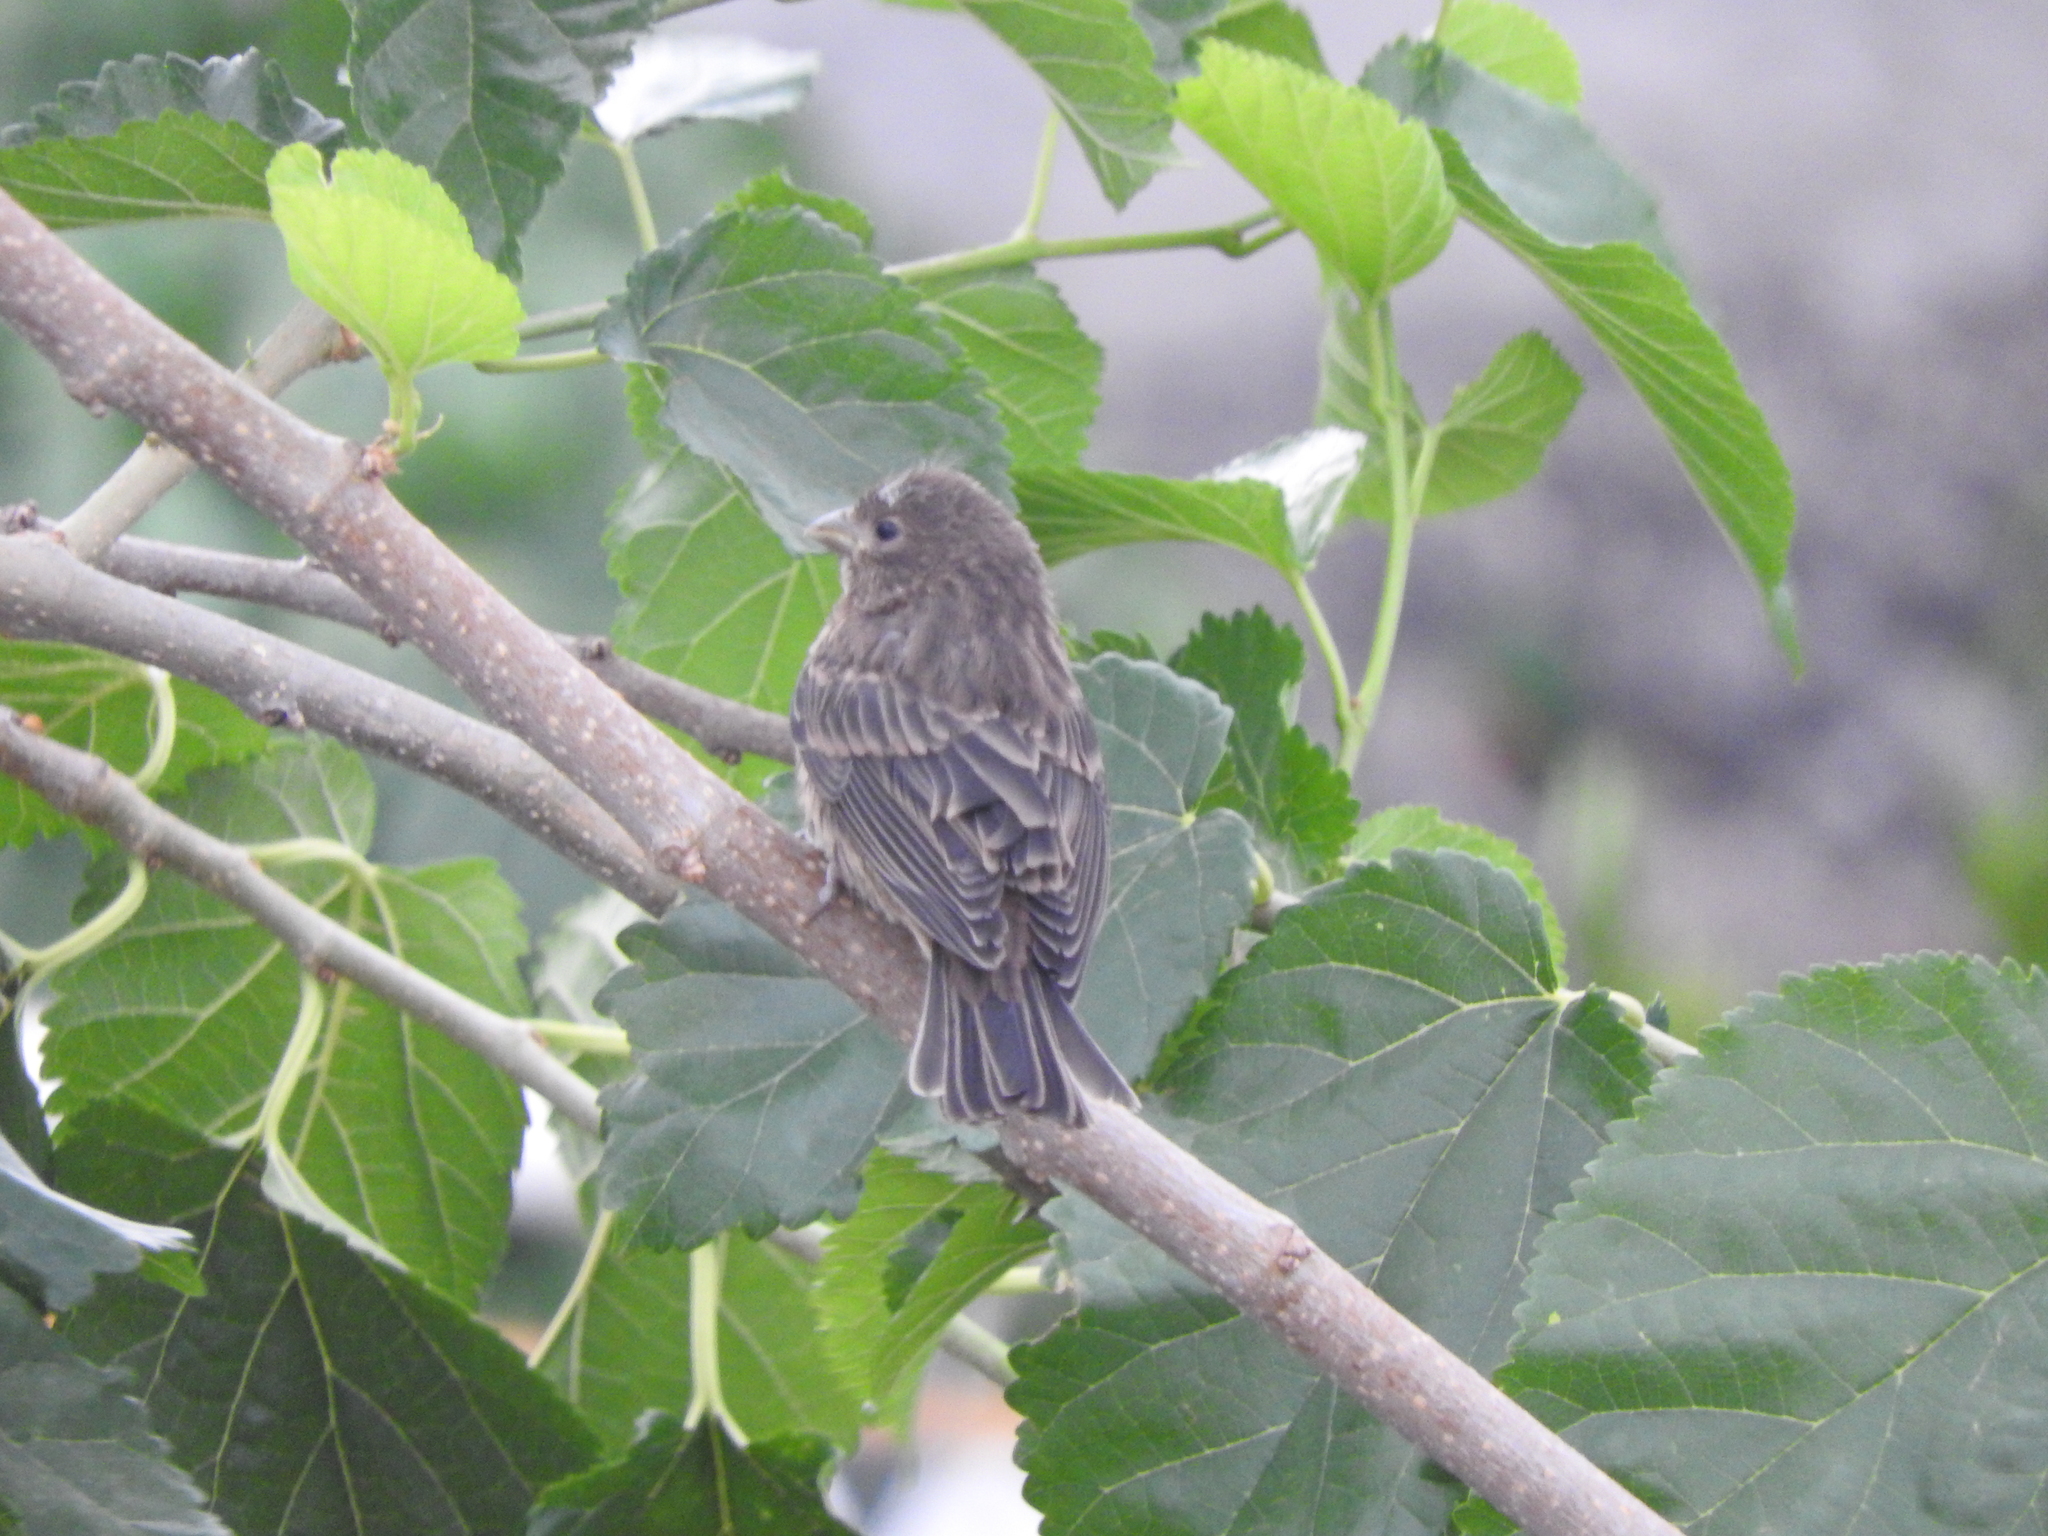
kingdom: Animalia
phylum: Chordata
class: Aves
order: Passeriformes
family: Fringillidae
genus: Haemorhous
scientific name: Haemorhous mexicanus
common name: House finch
